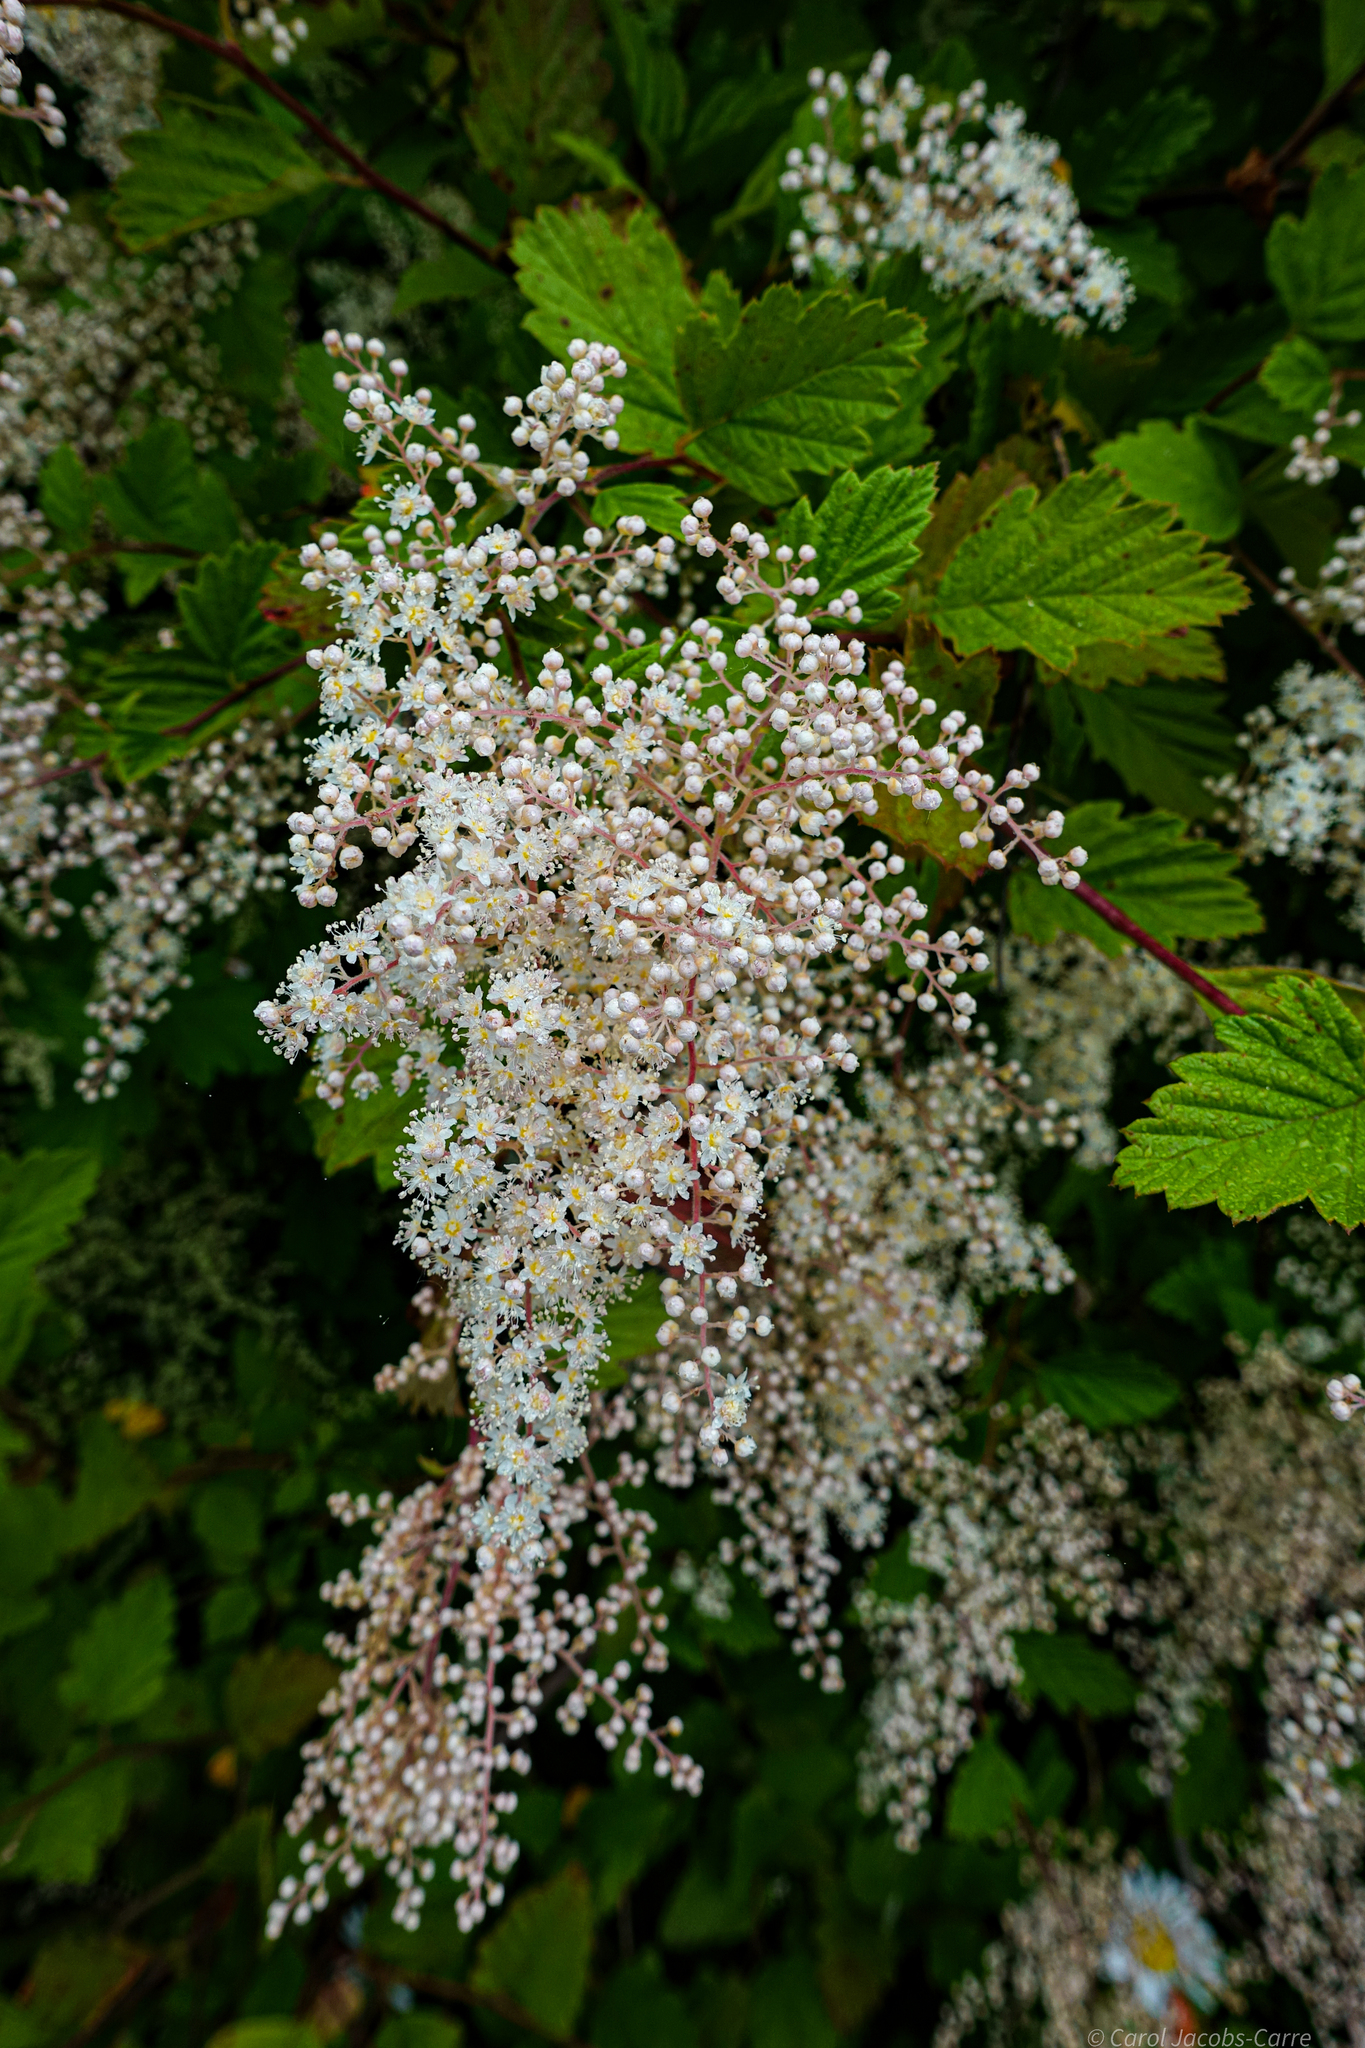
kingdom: Plantae
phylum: Tracheophyta
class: Magnoliopsida
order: Rosales
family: Rosaceae
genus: Holodiscus
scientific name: Holodiscus discolor
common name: Oceanspray
